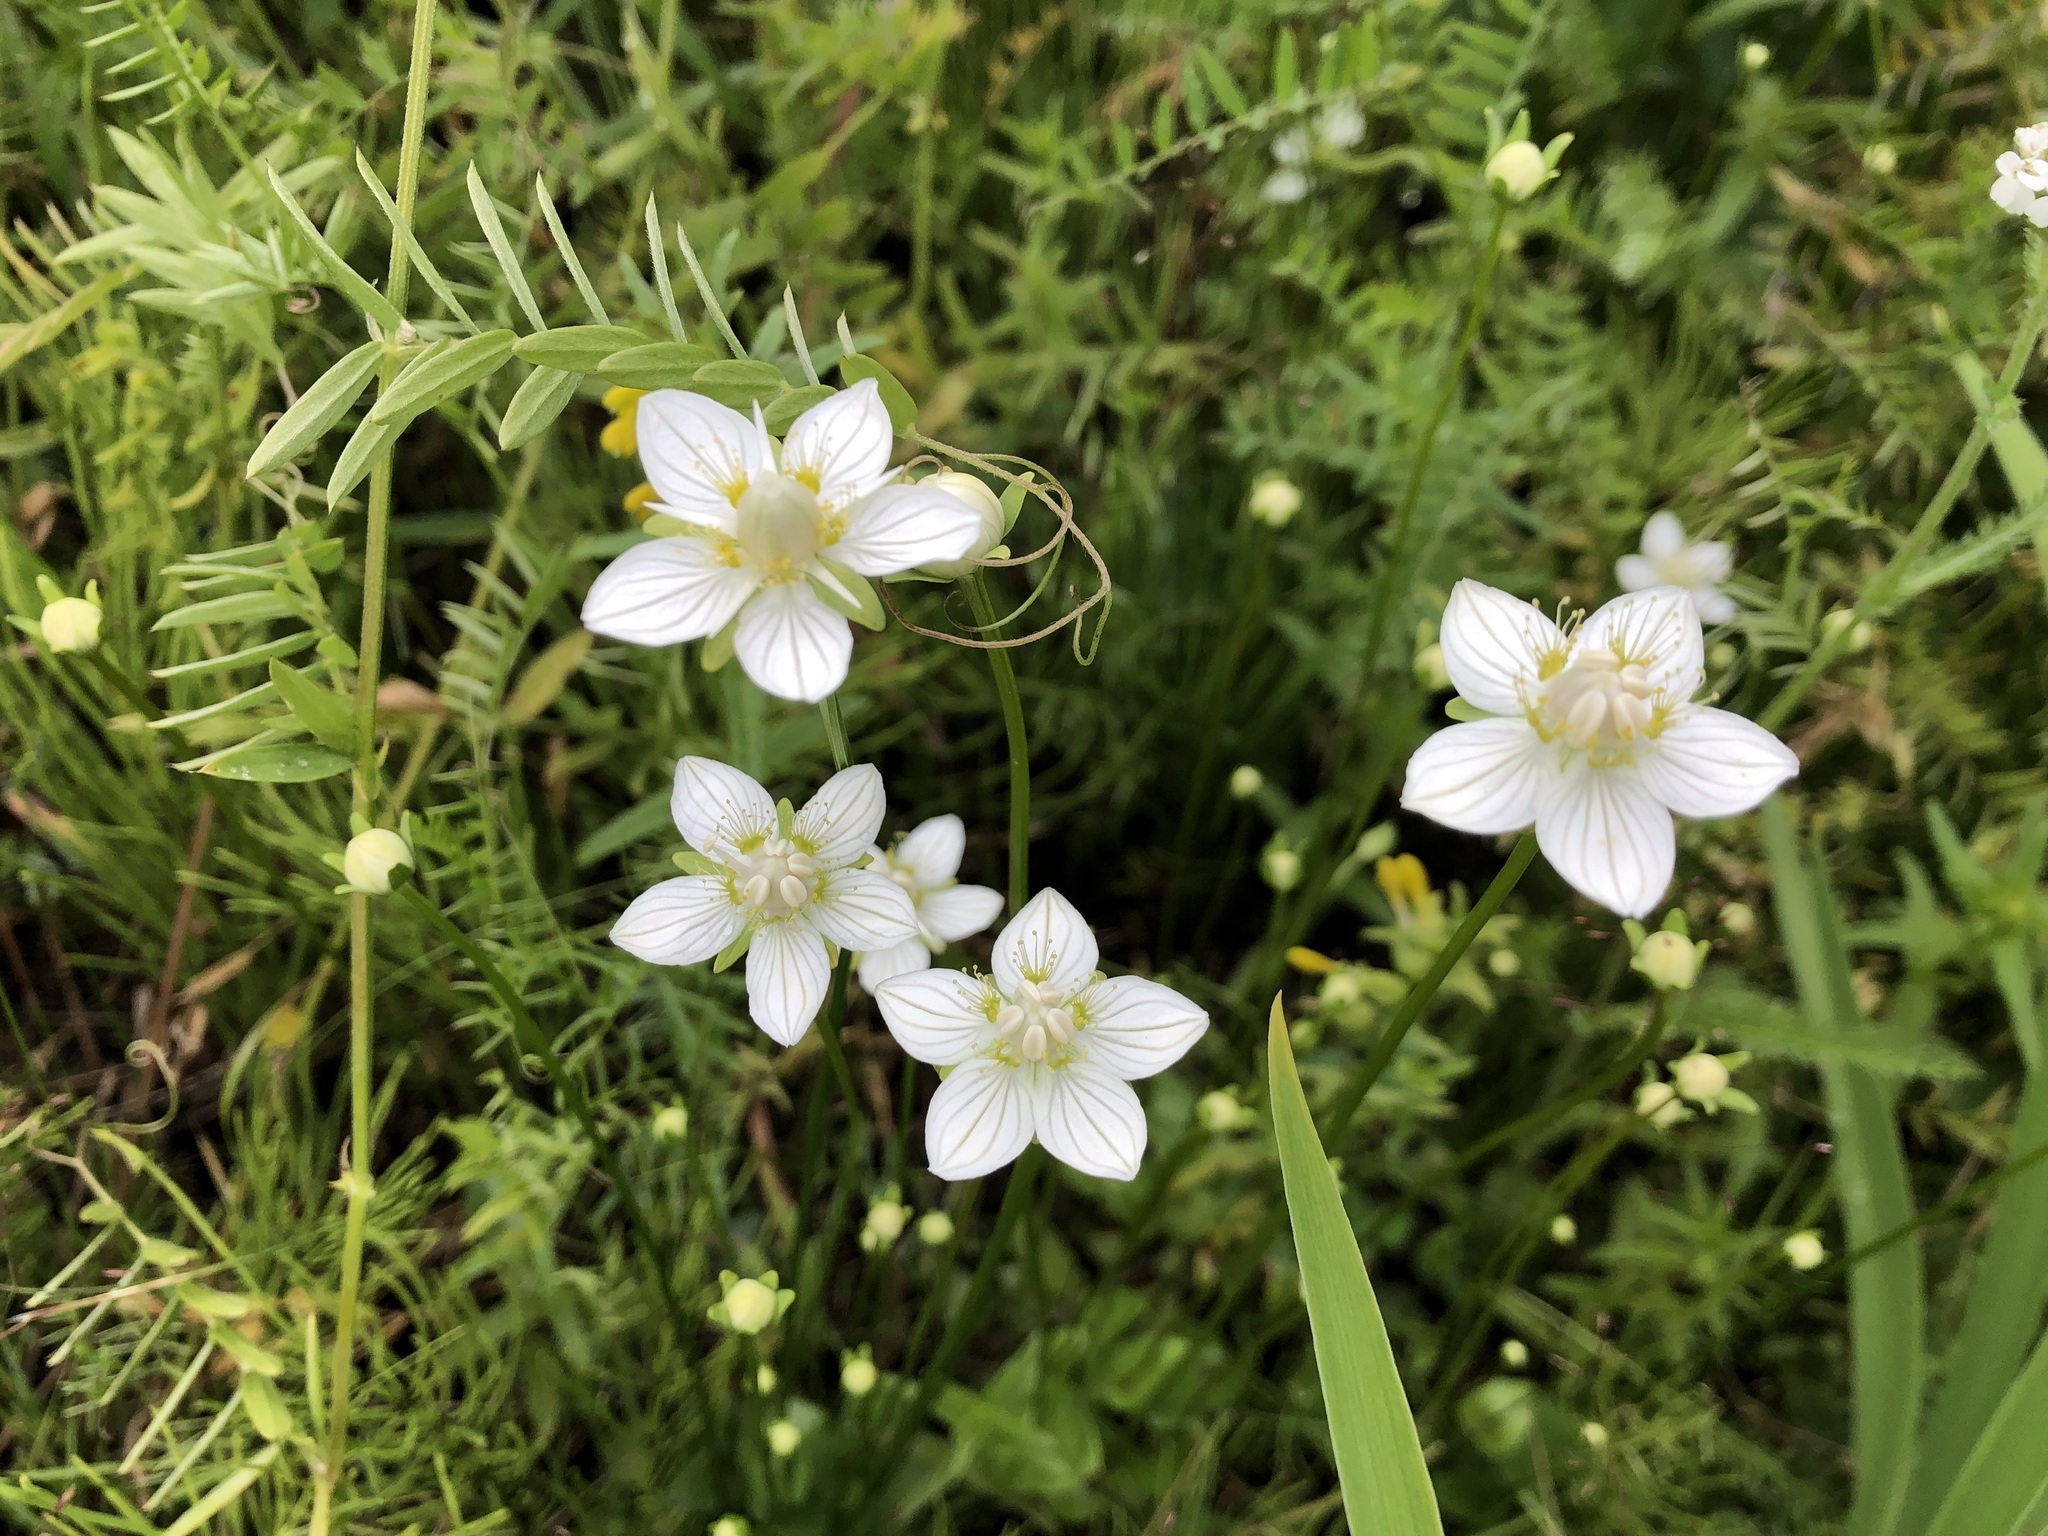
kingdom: Plantae
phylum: Tracheophyta
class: Magnoliopsida
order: Celastrales
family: Parnassiaceae
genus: Parnassia
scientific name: Parnassia palustris
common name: Grass-of-parnassus
